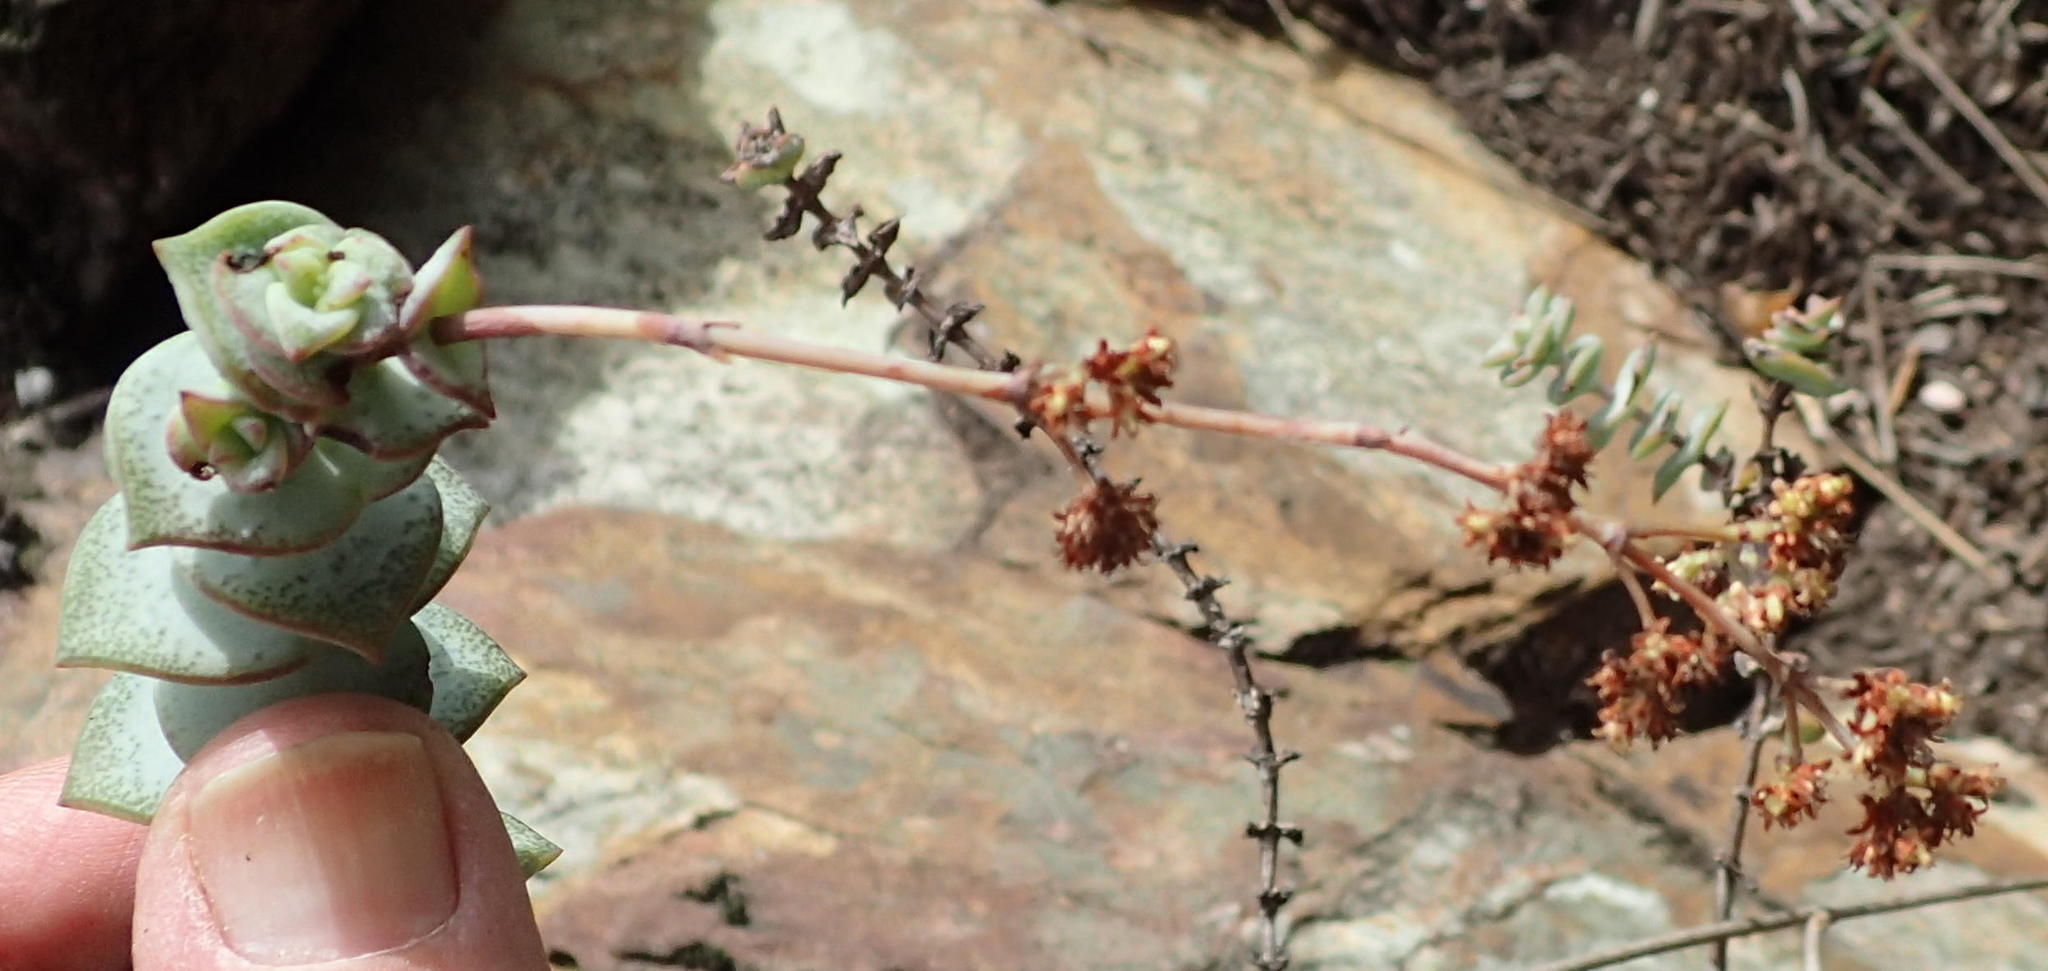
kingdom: Plantae
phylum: Tracheophyta
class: Magnoliopsida
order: Saxifragales
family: Crassulaceae
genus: Crassula
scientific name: Crassula perforata
